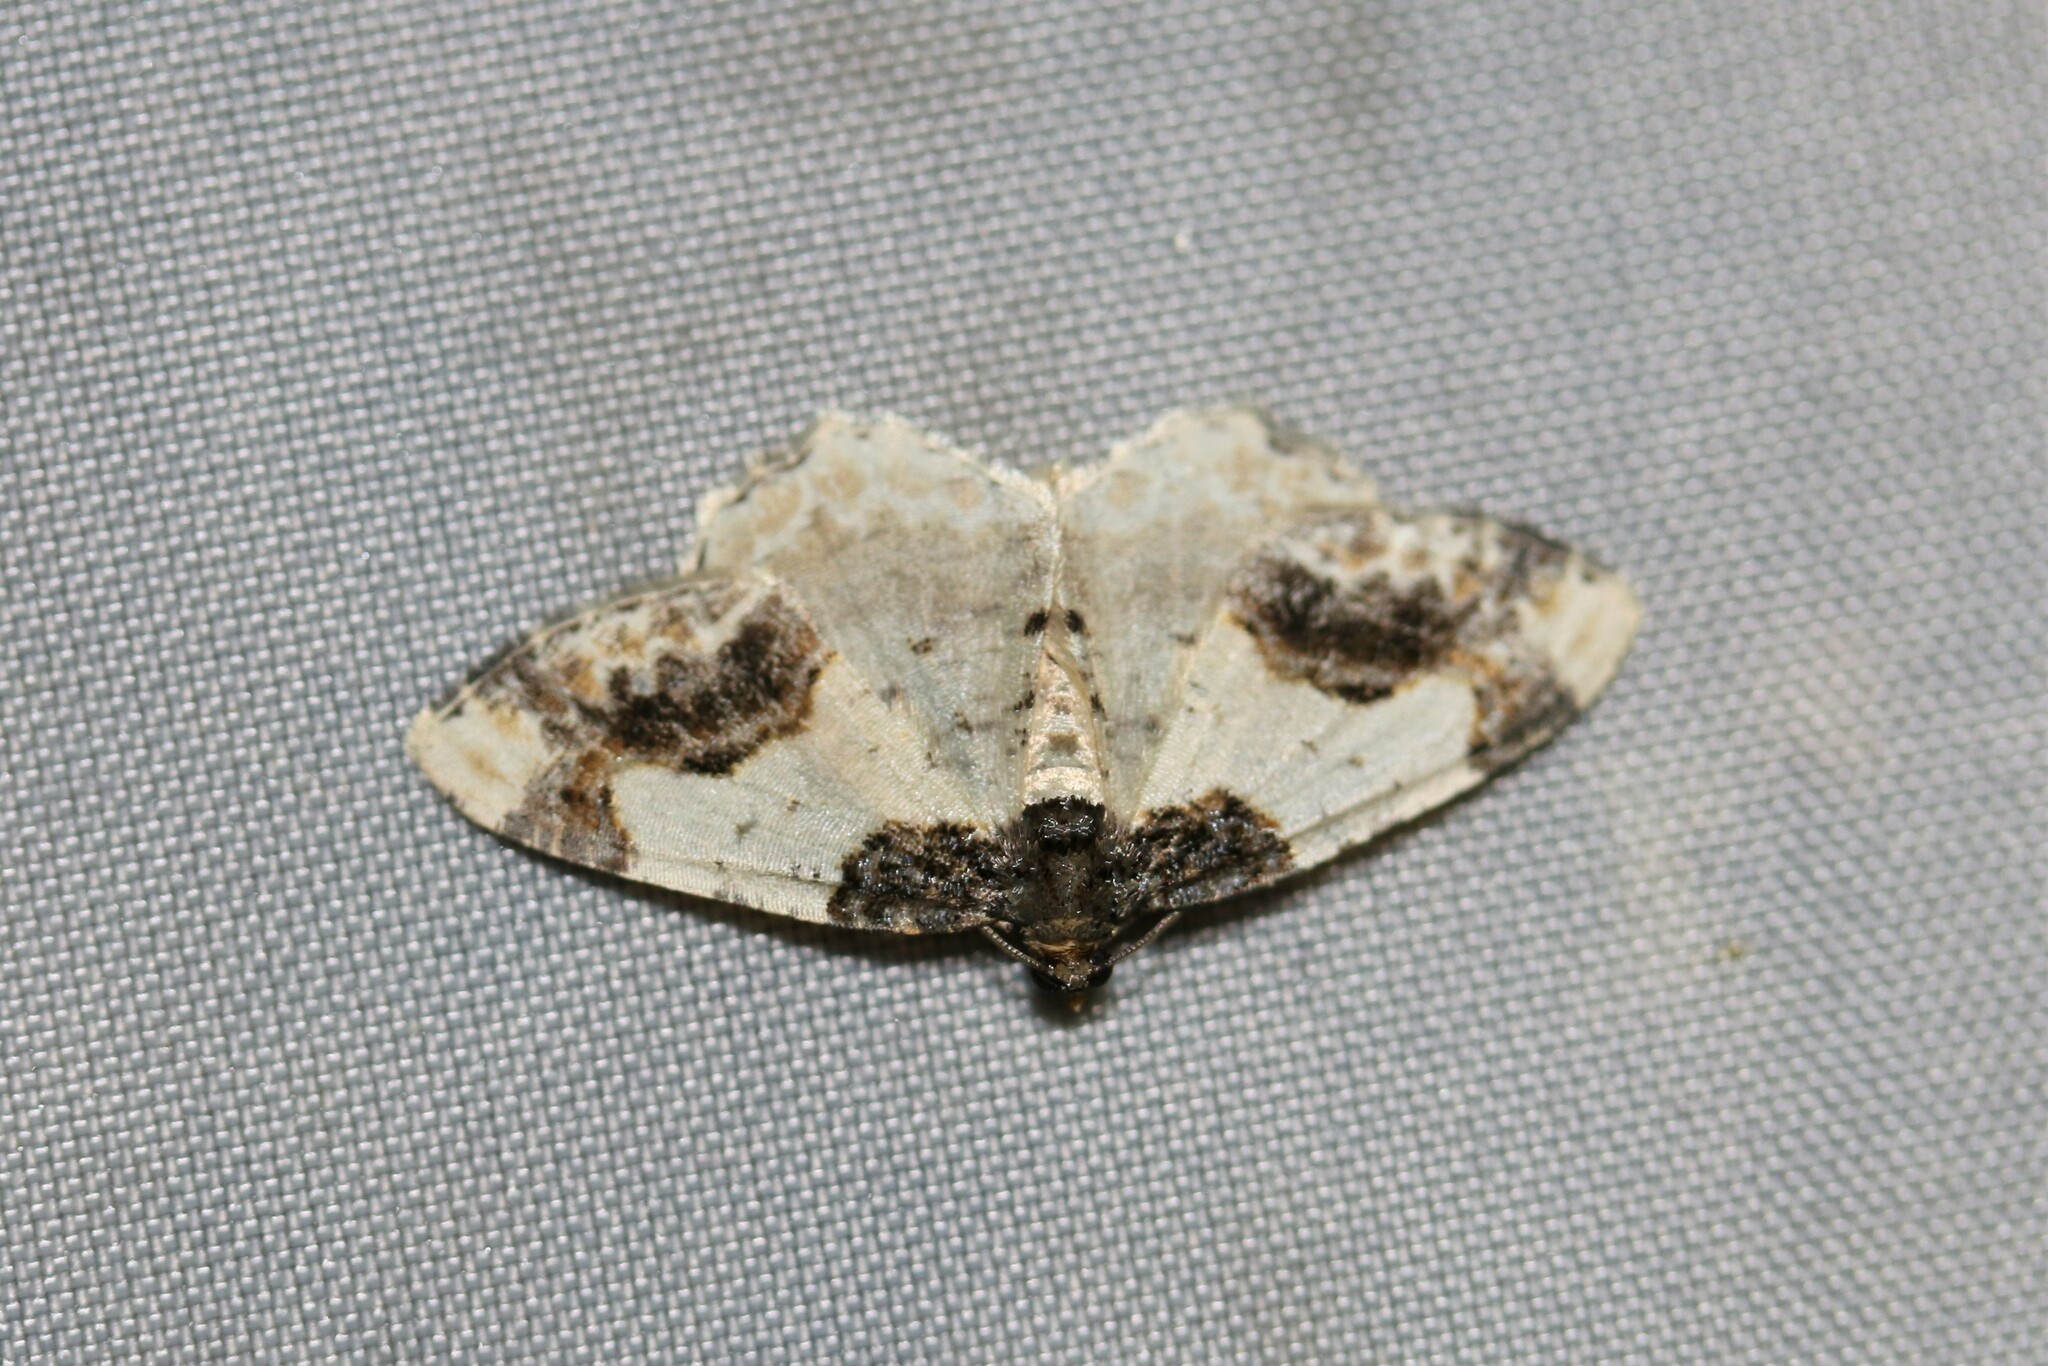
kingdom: Animalia
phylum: Arthropoda
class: Insecta
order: Lepidoptera
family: Geometridae
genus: Ligdia
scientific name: Ligdia adustata
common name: Scorched carpet
